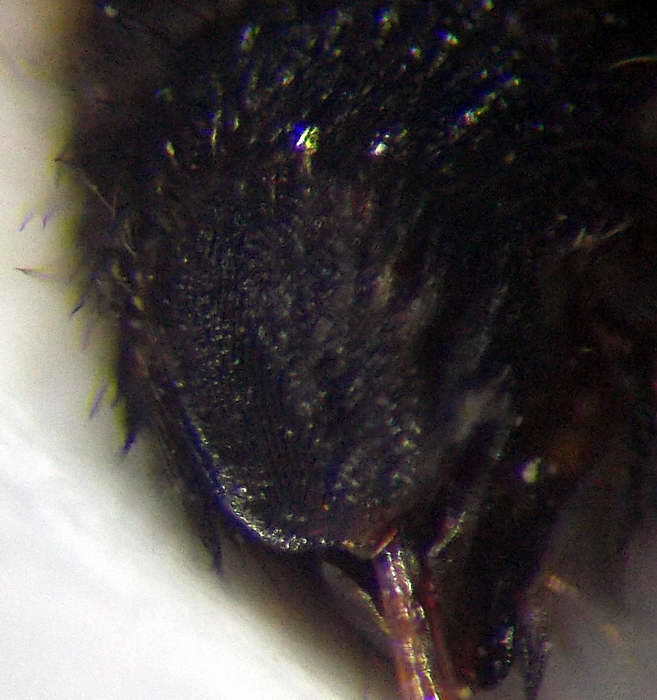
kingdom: Animalia
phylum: Arthropoda
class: Insecta
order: Hymenoptera
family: Mutillidae
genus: Nemka
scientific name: Nemka viduata
